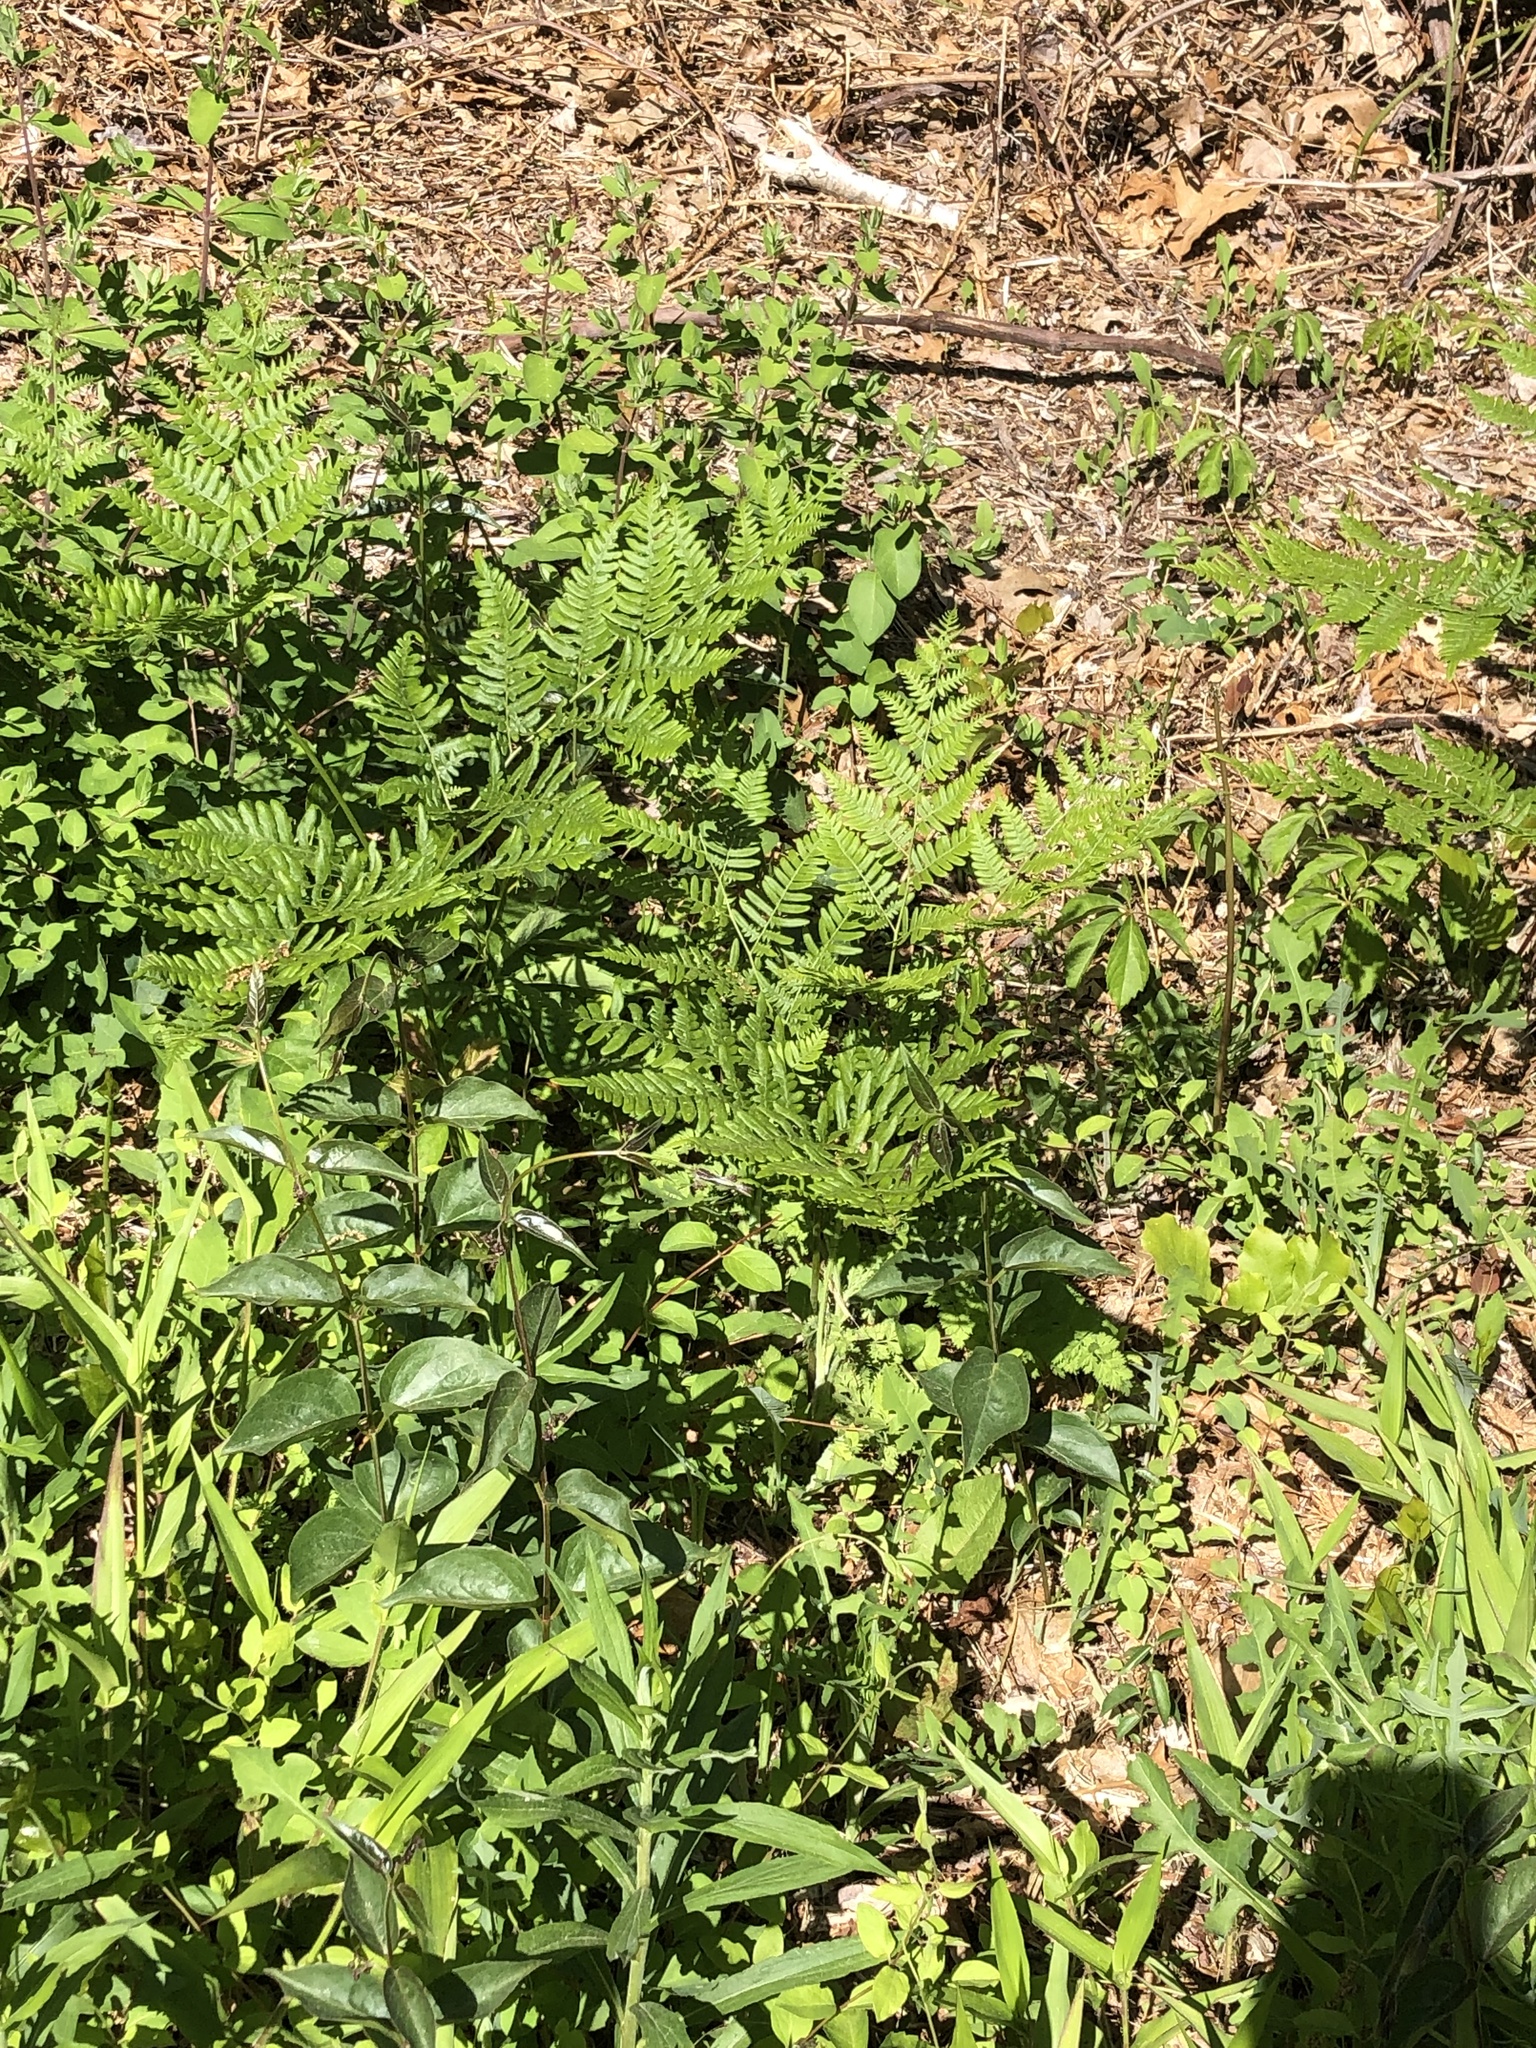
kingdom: Plantae
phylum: Tracheophyta
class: Polypodiopsida
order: Polypodiales
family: Dennstaedtiaceae
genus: Pteridium
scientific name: Pteridium aquilinum
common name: Bracken
